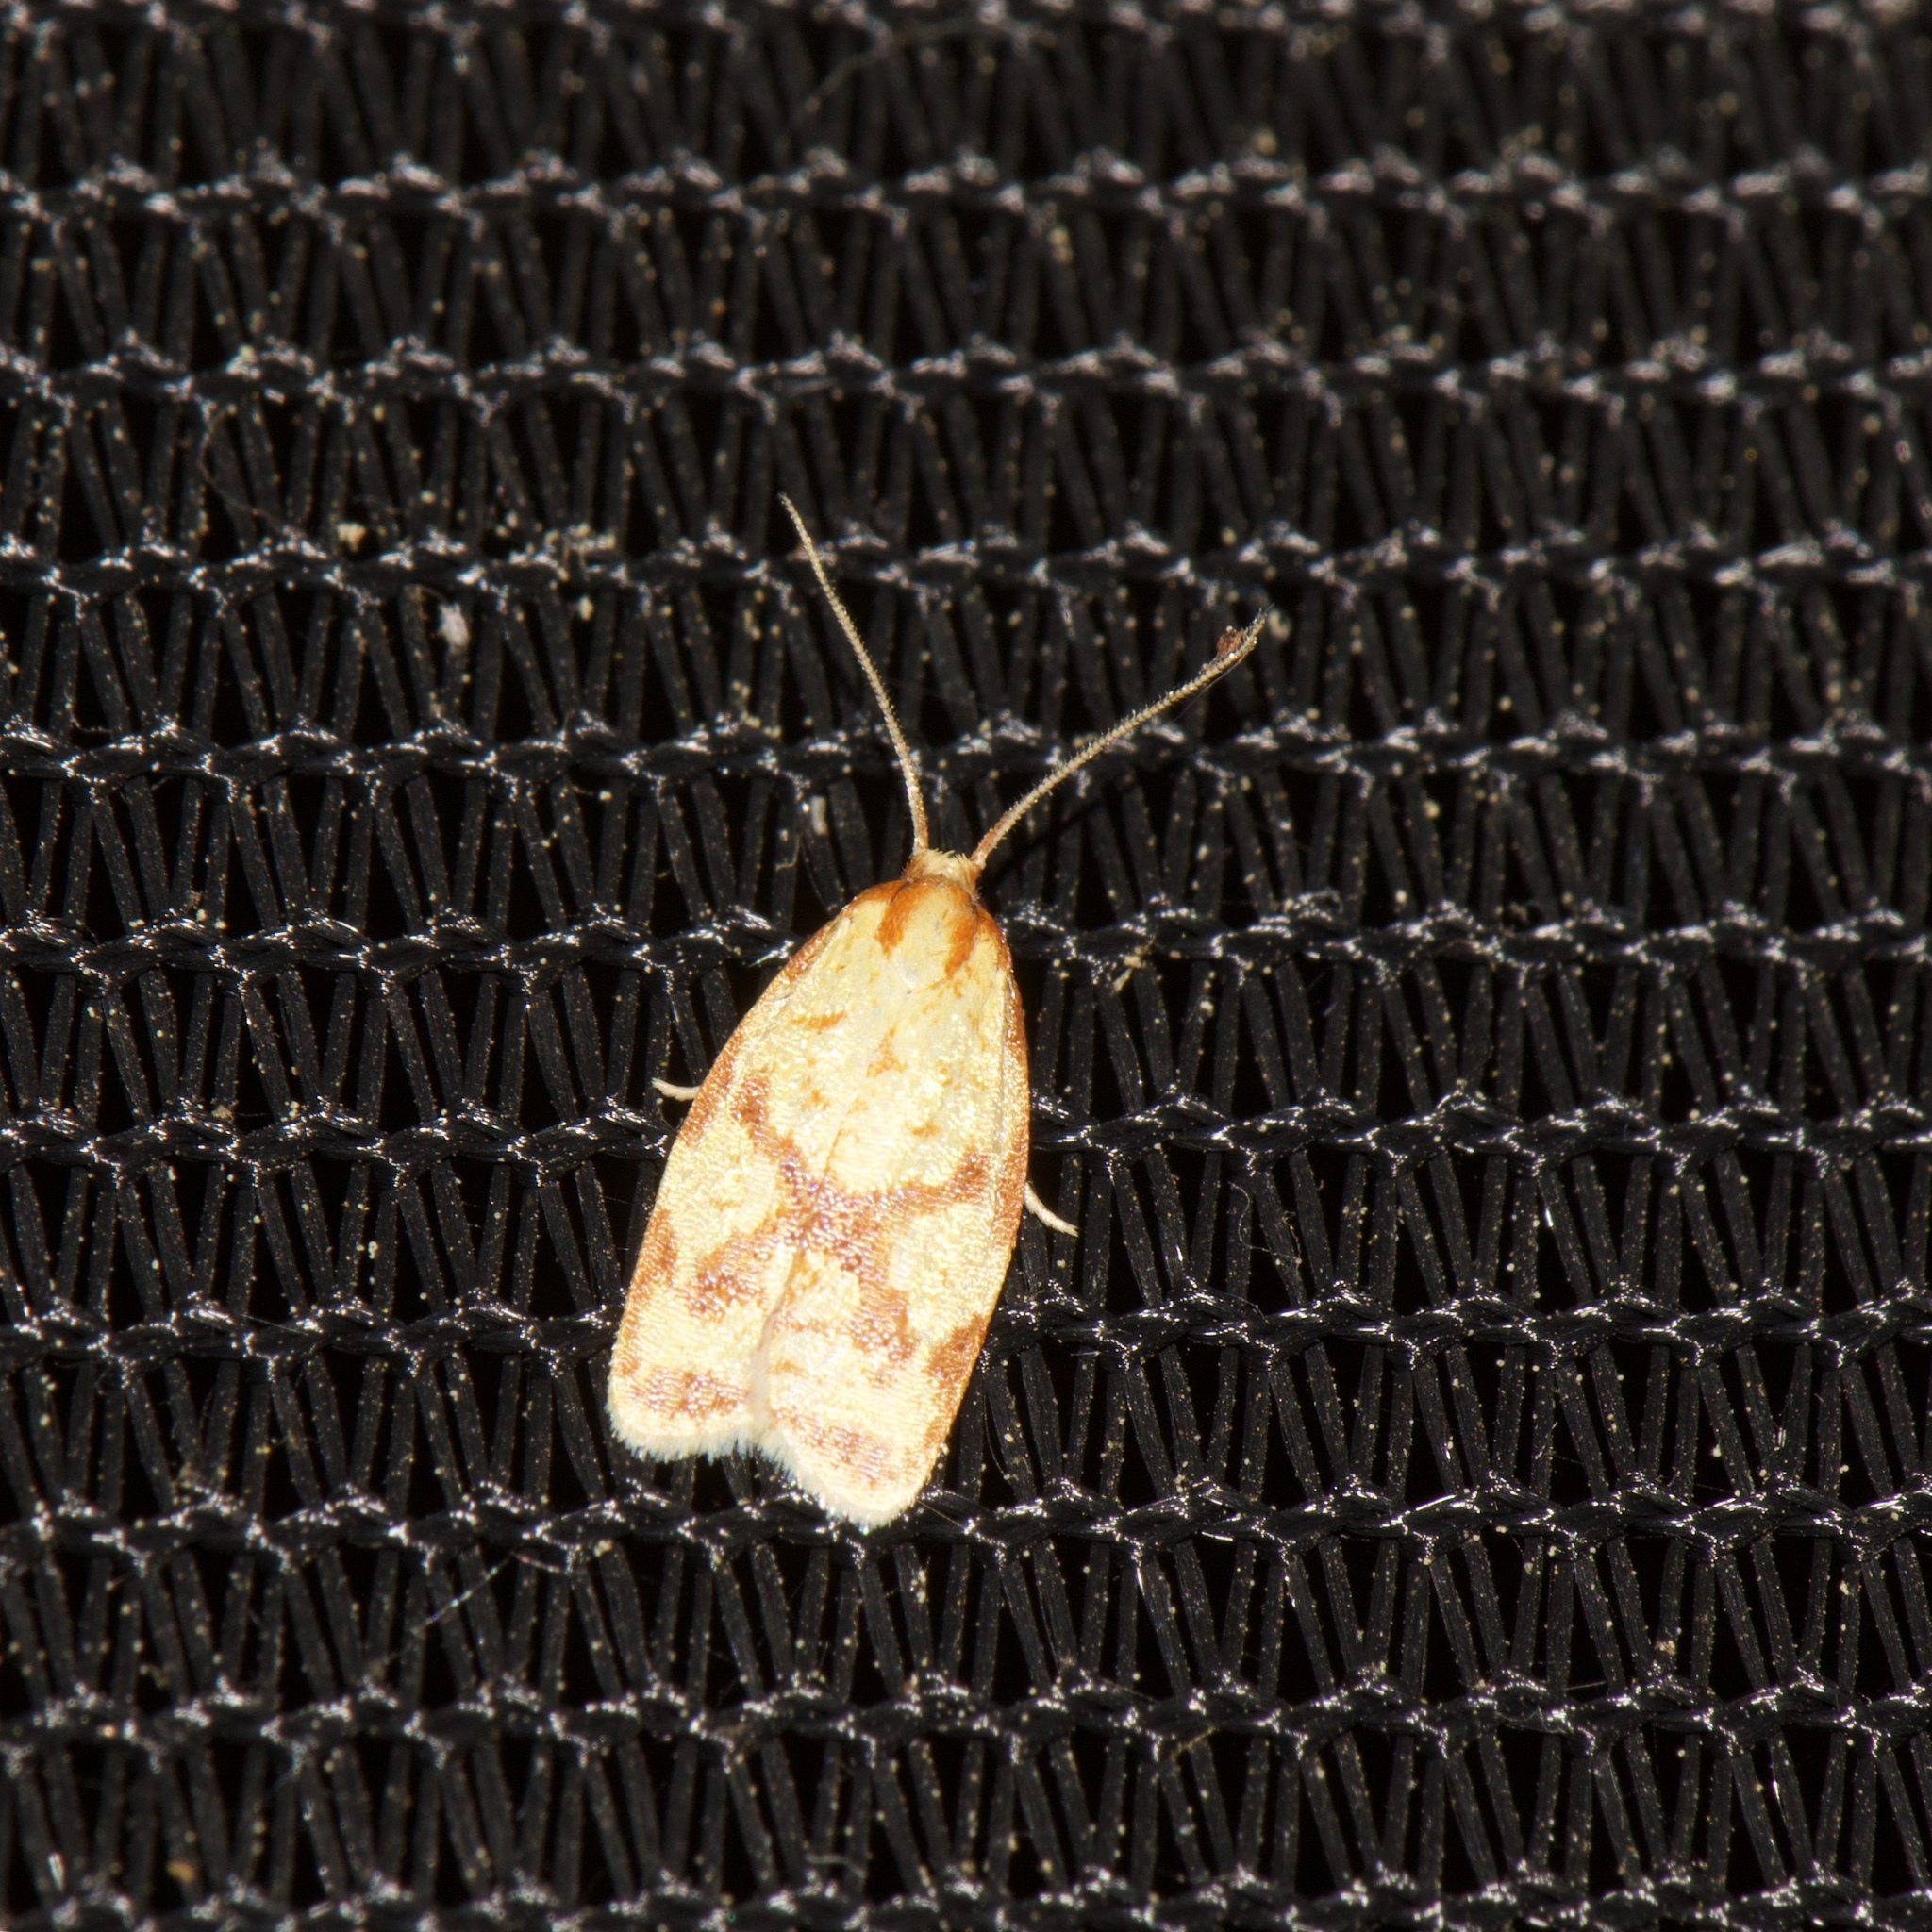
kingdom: Animalia
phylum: Arthropoda
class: Insecta
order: Lepidoptera
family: Tortricidae
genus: Sparganothis
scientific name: Sparganothis sulfureana
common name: Sparganothis fruitworm moth
